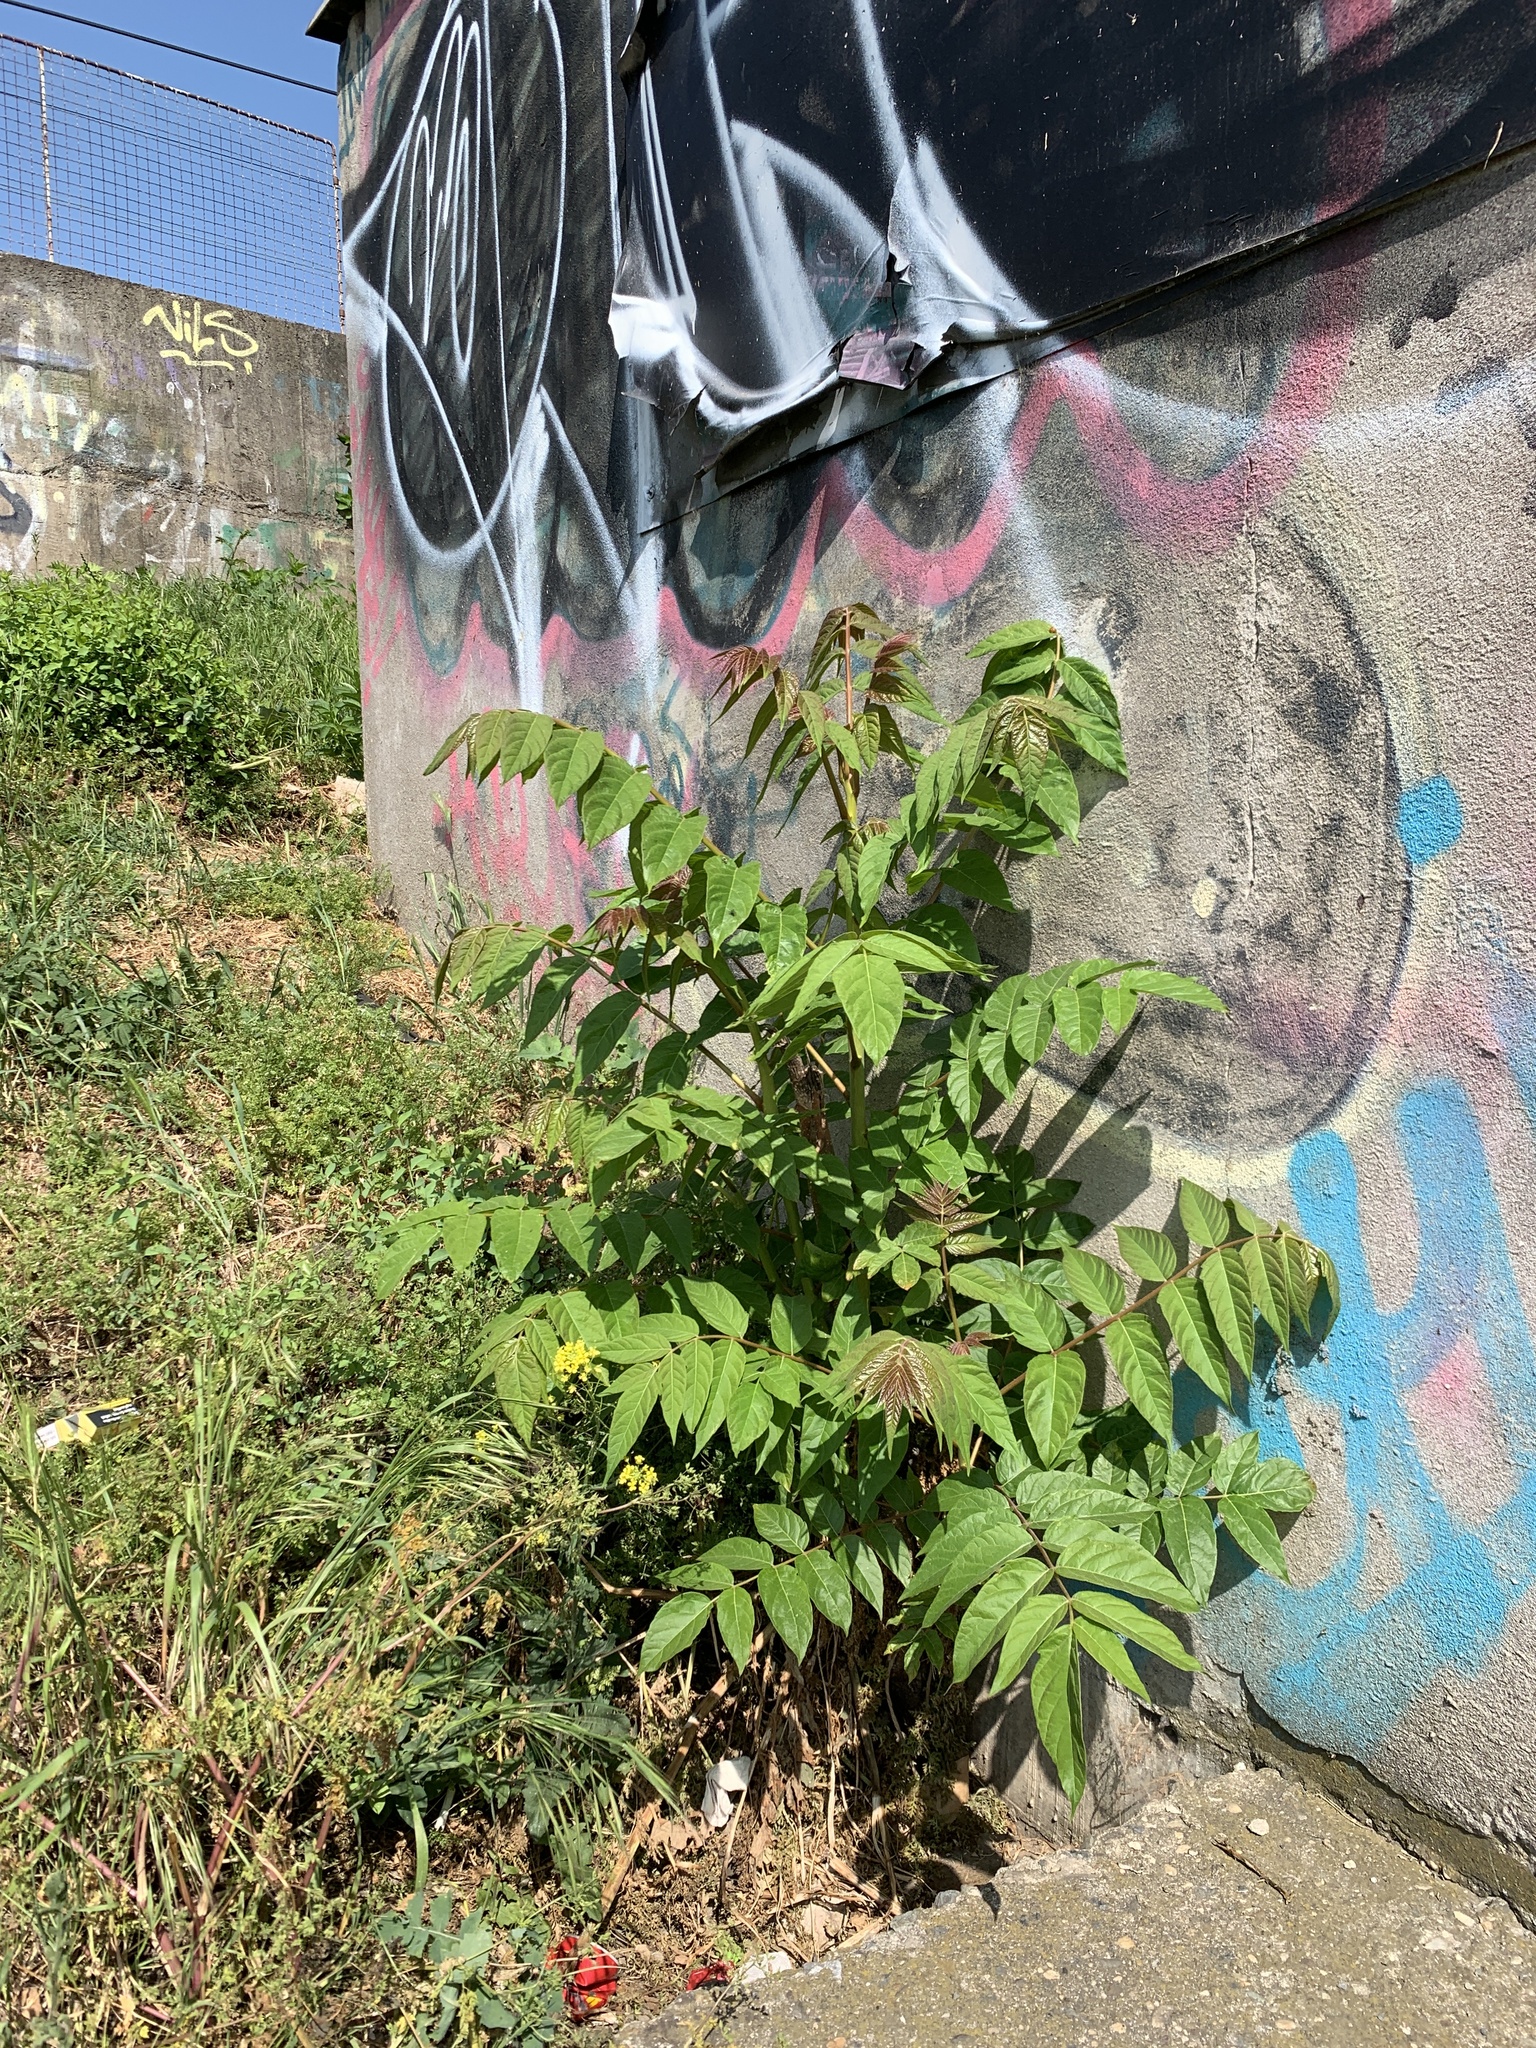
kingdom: Plantae
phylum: Tracheophyta
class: Magnoliopsida
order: Sapindales
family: Simaroubaceae
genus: Ailanthus
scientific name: Ailanthus altissima
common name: Tree-of-heaven
